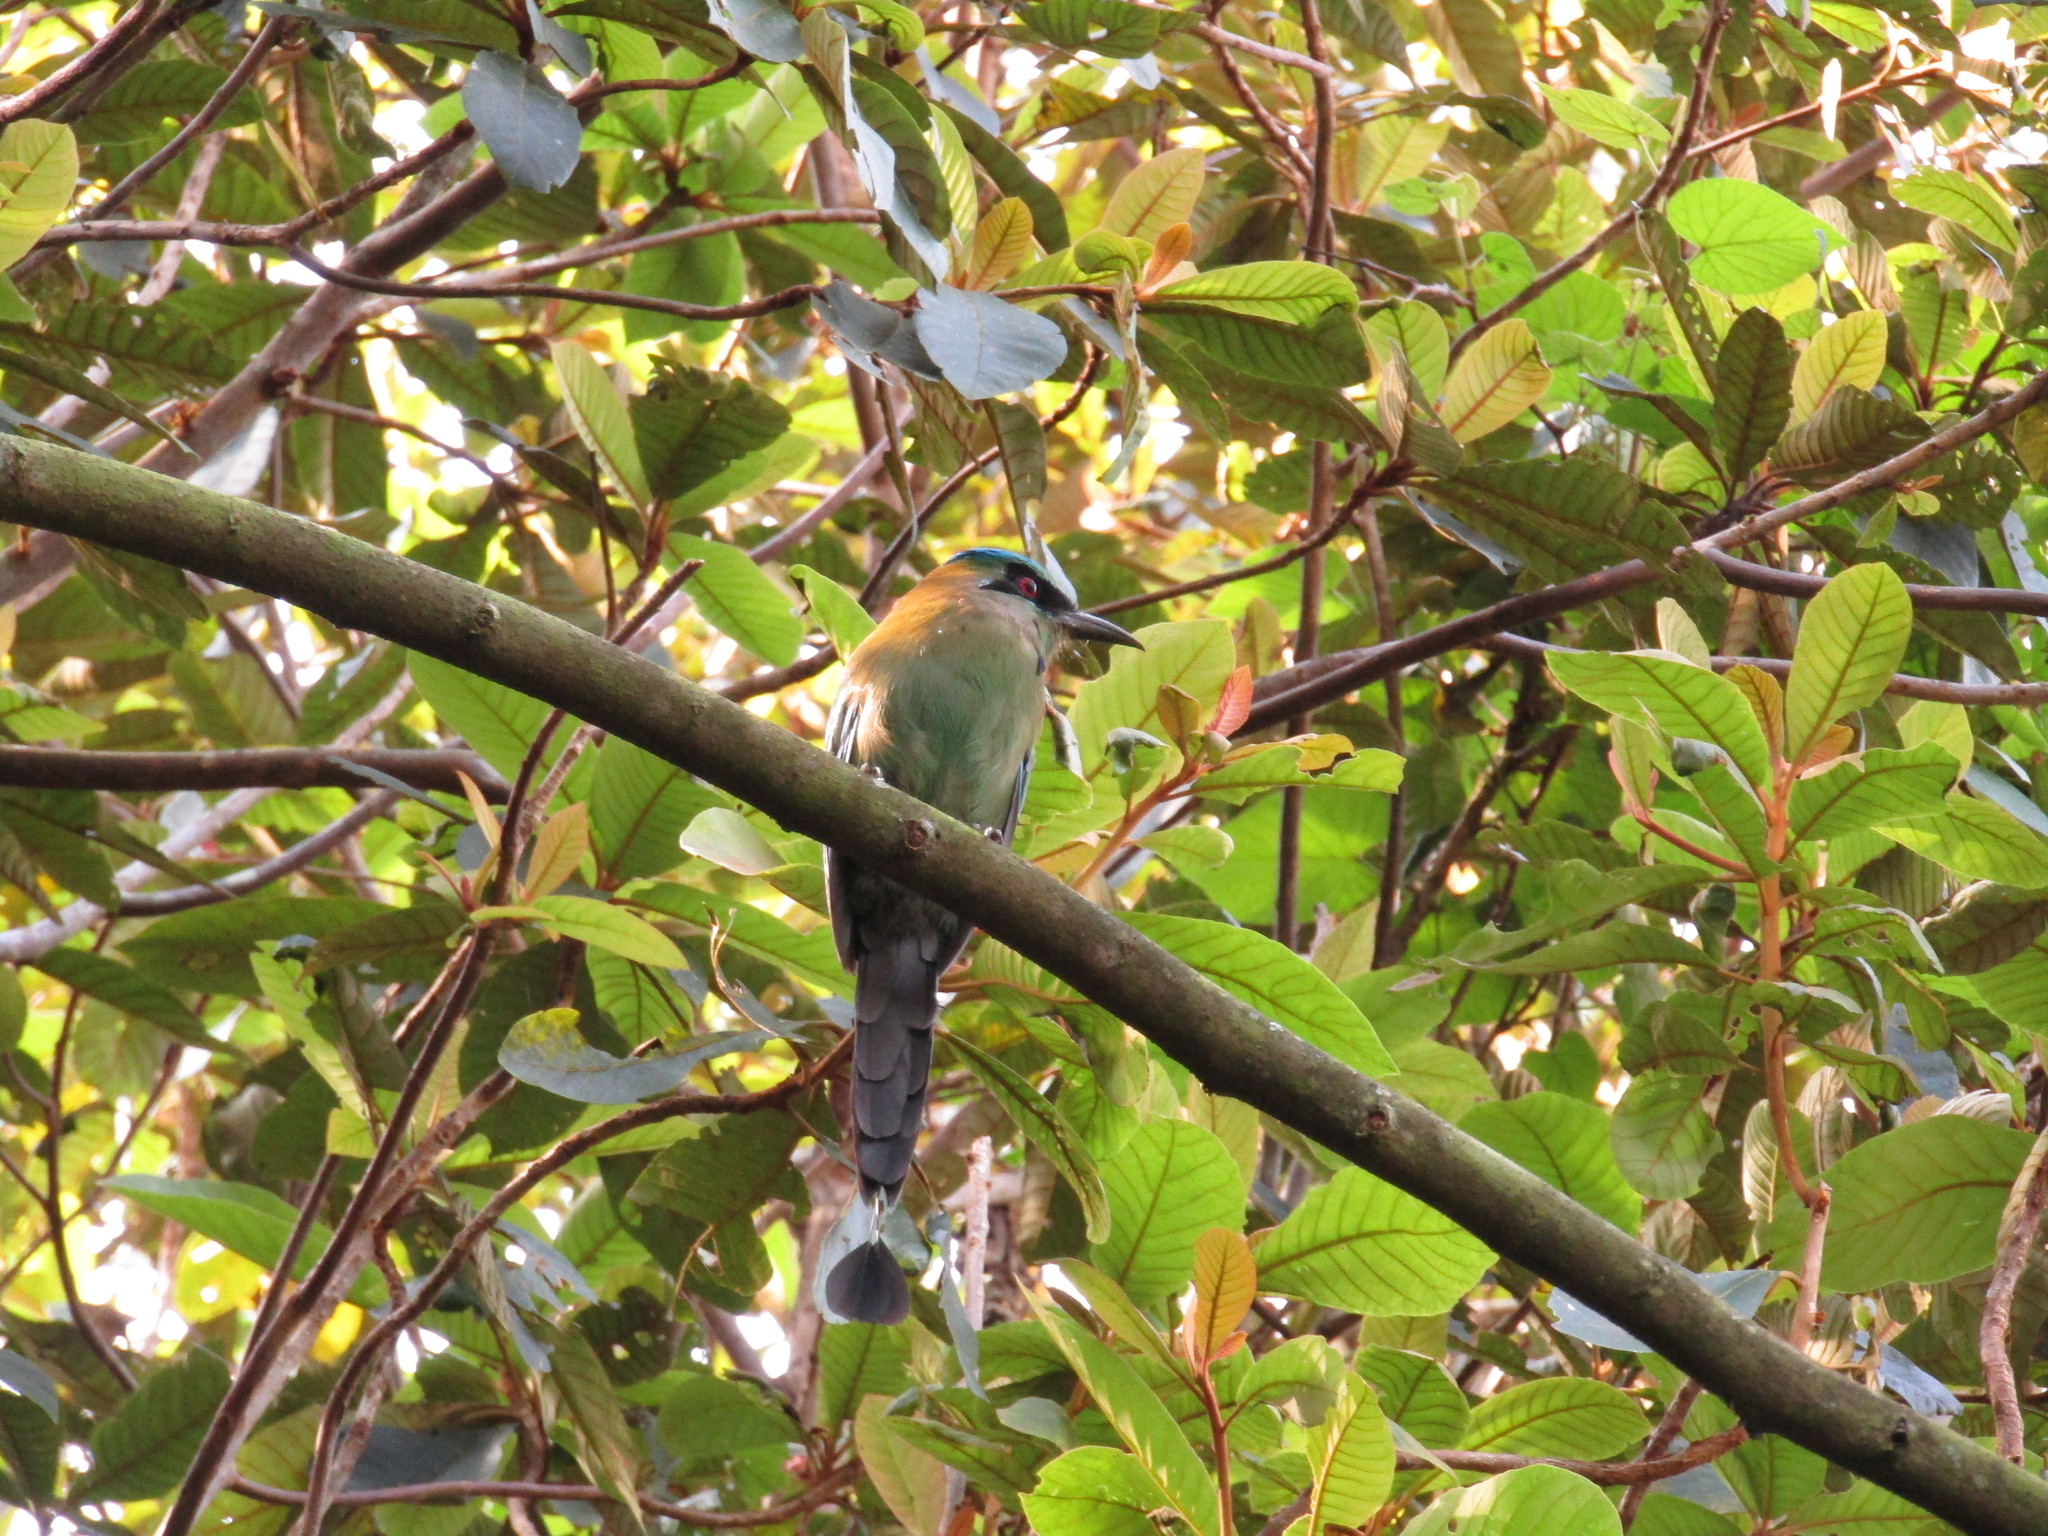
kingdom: Animalia
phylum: Chordata
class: Aves
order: Coraciiformes
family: Momotidae
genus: Momotus
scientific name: Momotus coeruliceps
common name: Blue-capped motmot
